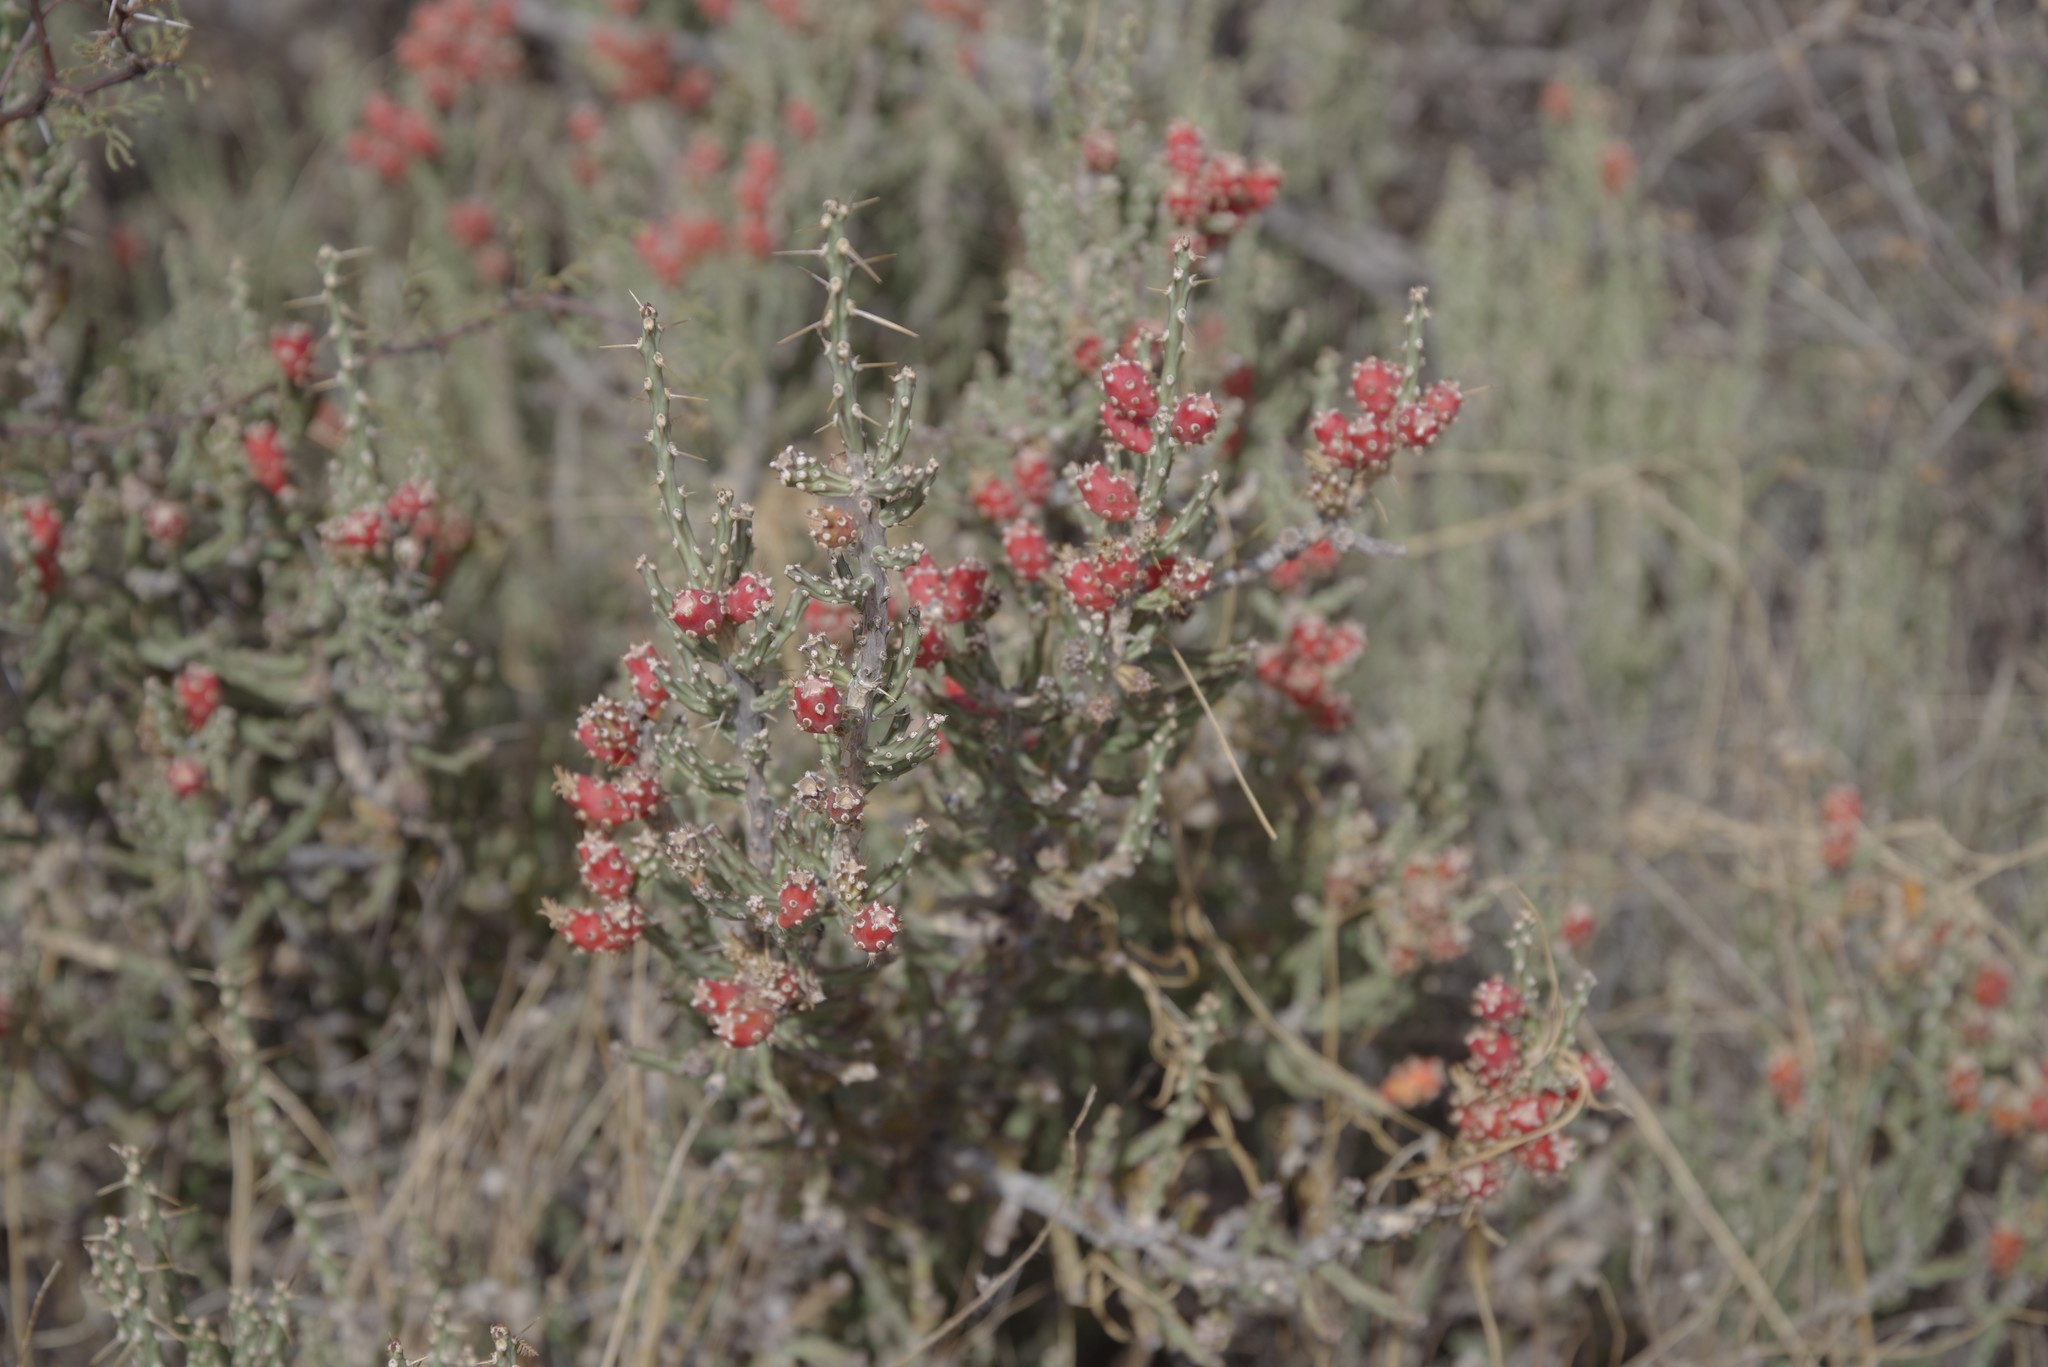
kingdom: Plantae
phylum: Tracheophyta
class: Magnoliopsida
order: Caryophyllales
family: Cactaceae
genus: Cylindropuntia
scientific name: Cylindropuntia leptocaulis
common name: Christmas cactus
